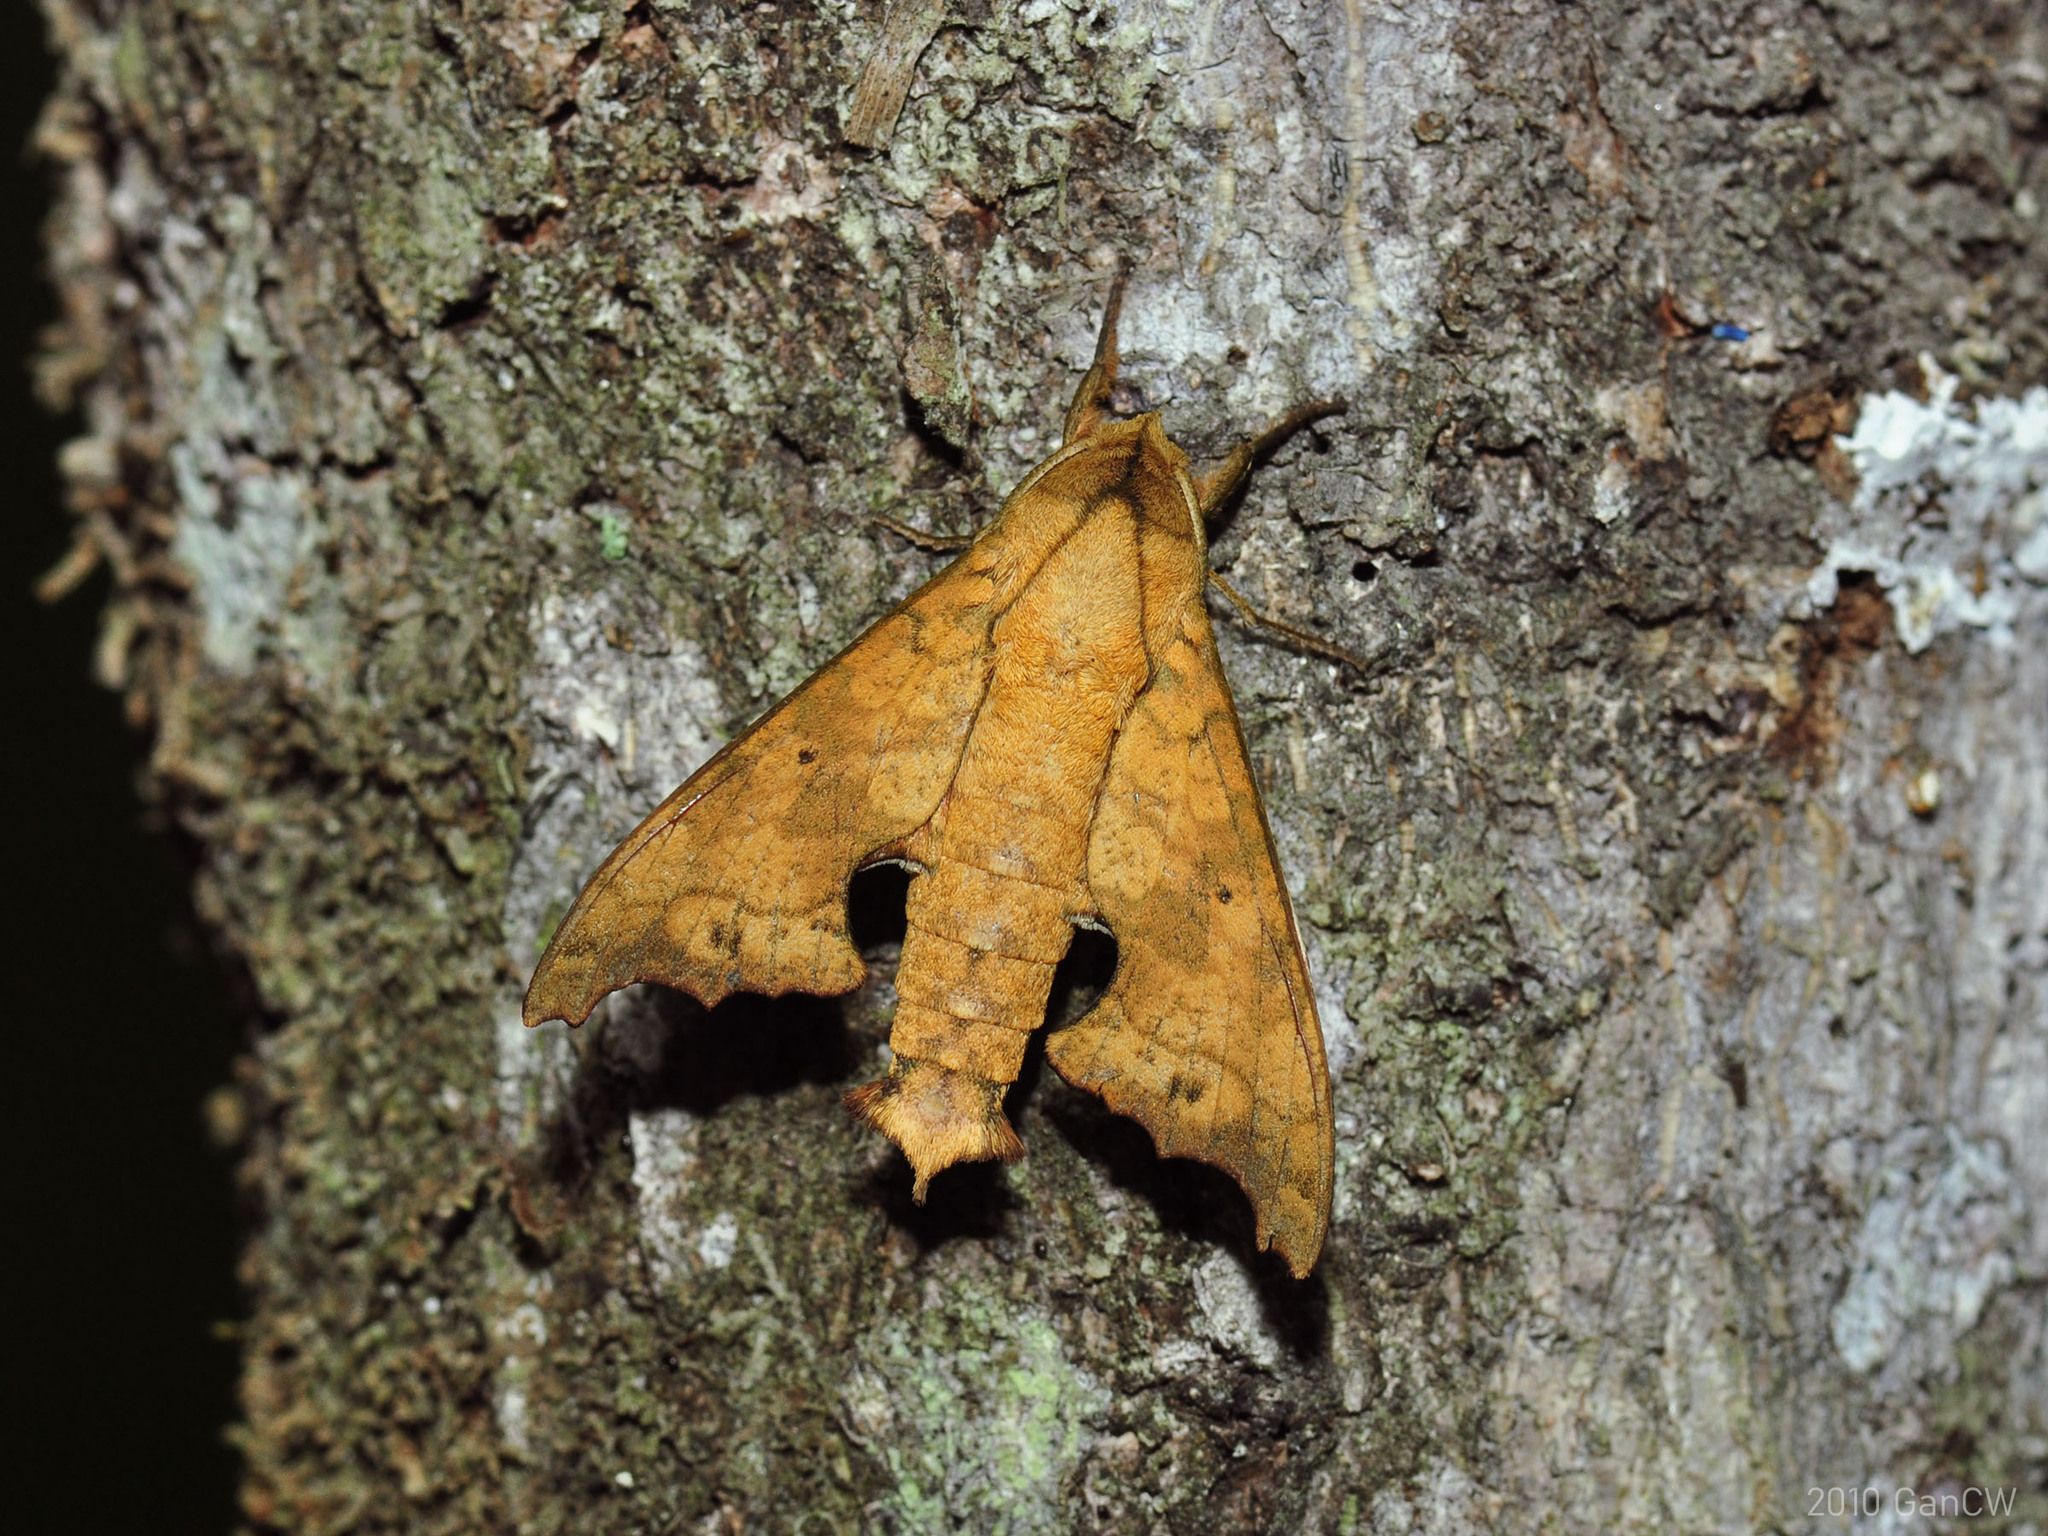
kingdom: Animalia
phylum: Arthropoda
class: Insecta
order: Lepidoptera
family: Sphingidae
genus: Smerinthulus
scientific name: Smerinthulus quadripunctatus
